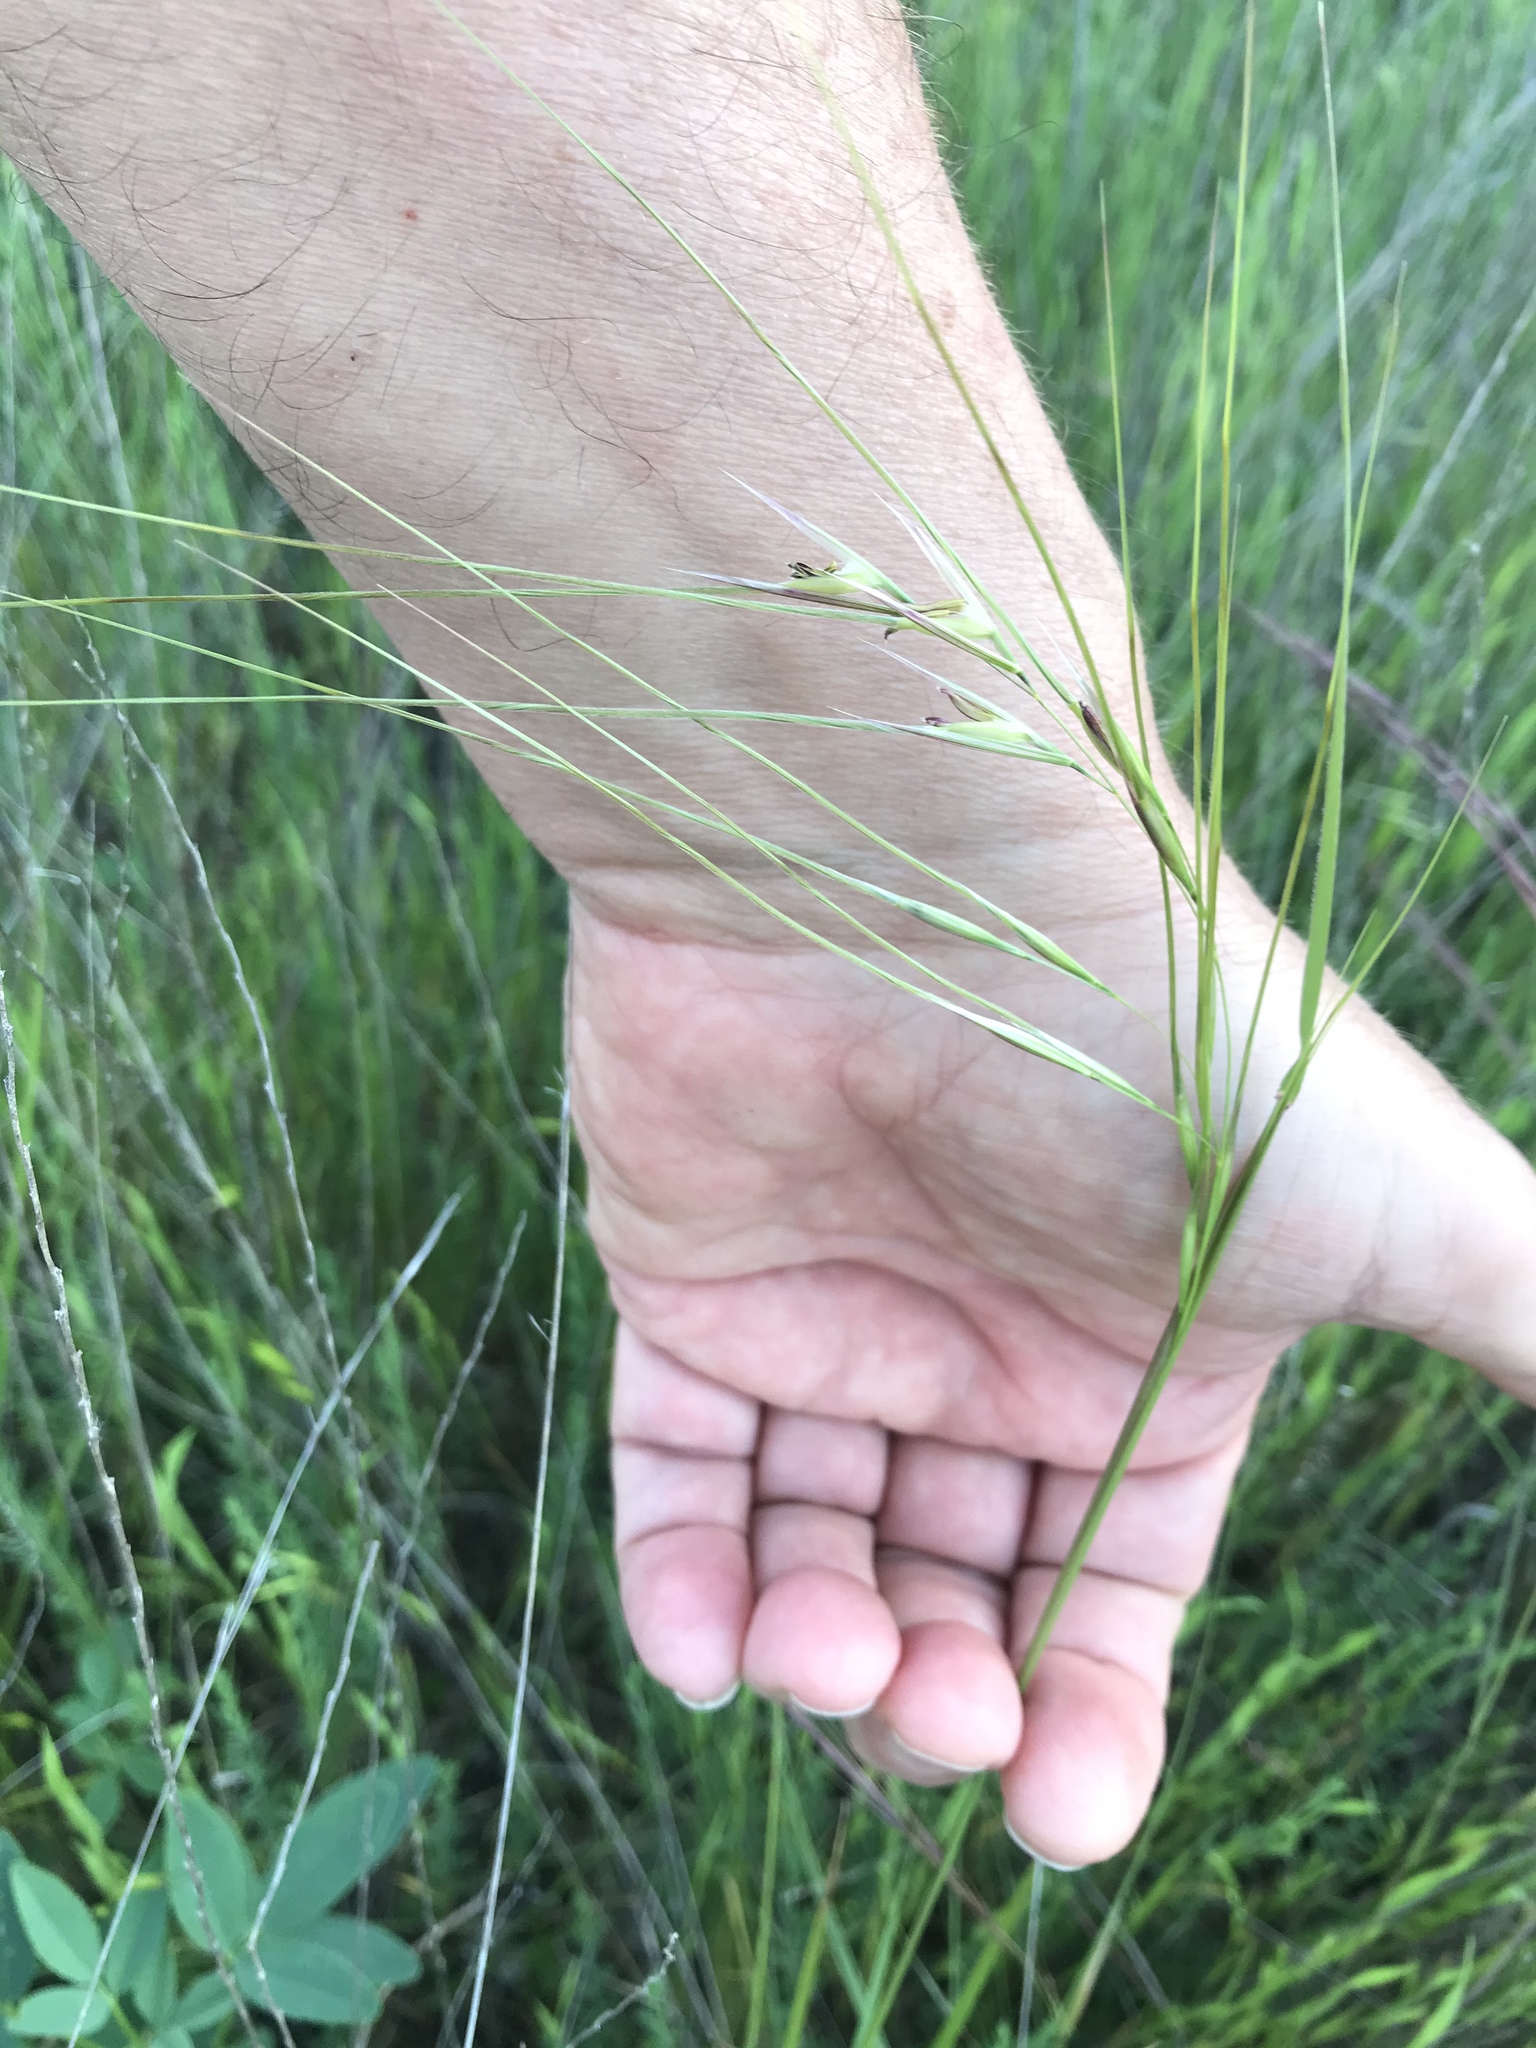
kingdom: Plantae
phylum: Tracheophyta
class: Liliopsida
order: Poales
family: Poaceae
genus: Nassella
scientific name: Nassella leucotricha
